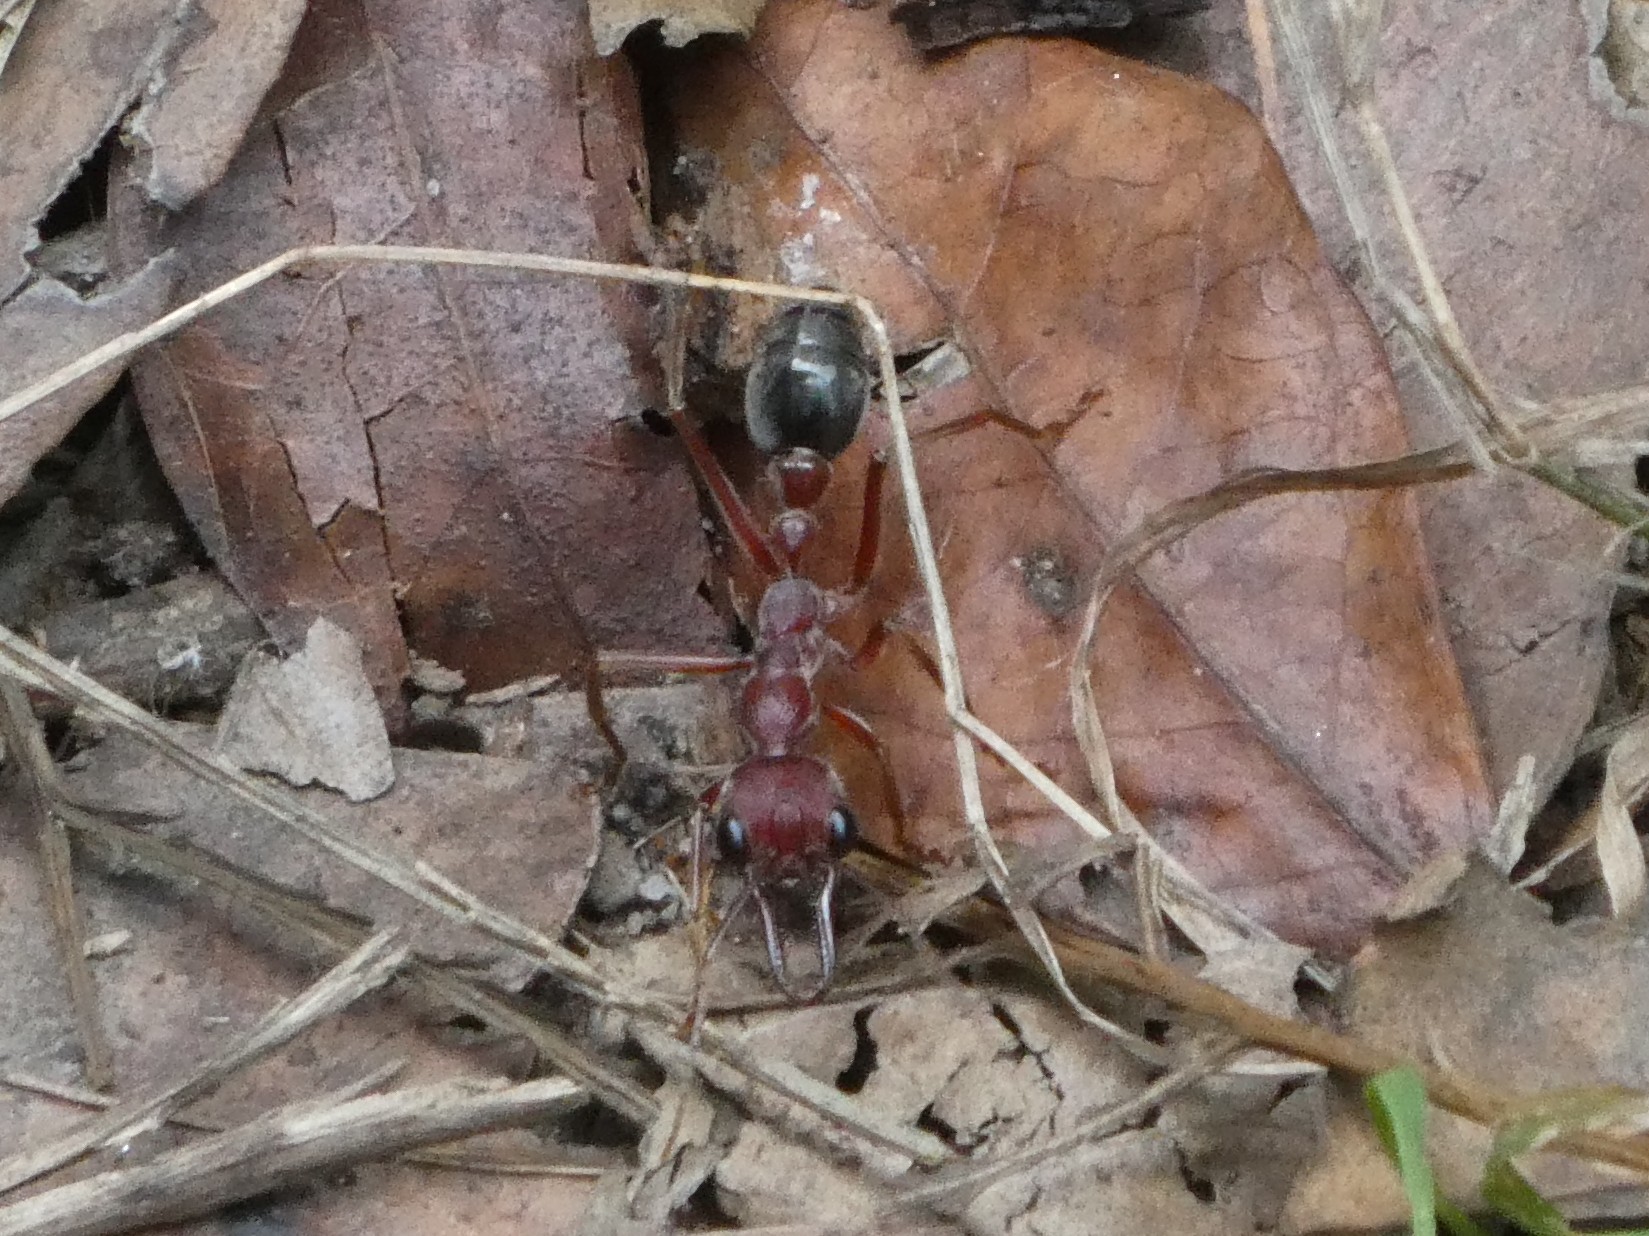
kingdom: Animalia
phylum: Arthropoda
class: Insecta
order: Hymenoptera
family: Formicidae
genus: Myrmecia
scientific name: Myrmecia brevinoda
